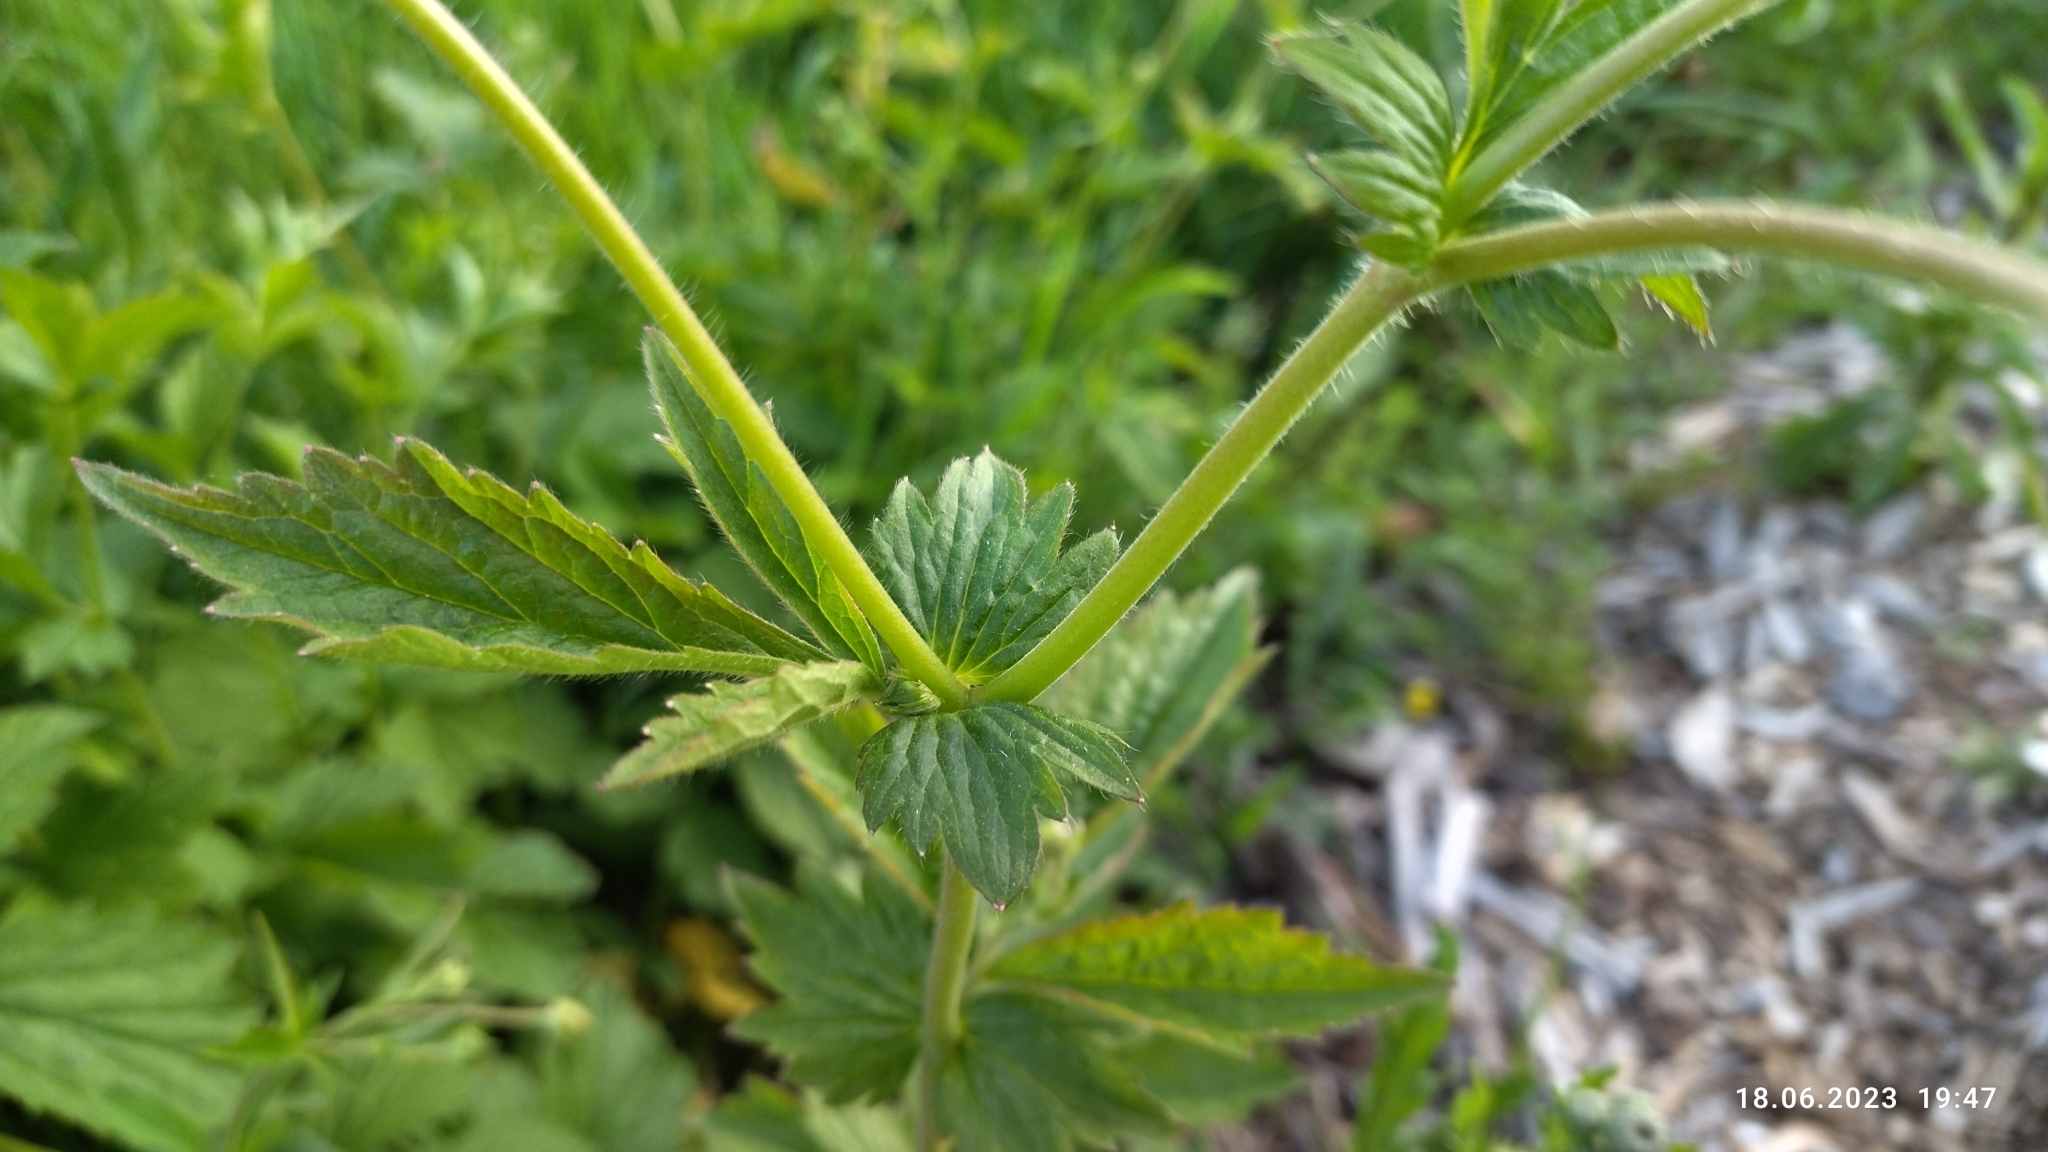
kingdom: Plantae
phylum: Tracheophyta
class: Magnoliopsida
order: Rosales
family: Rosaceae
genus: Geum
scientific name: Geum aleppicum
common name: Yellow avens
